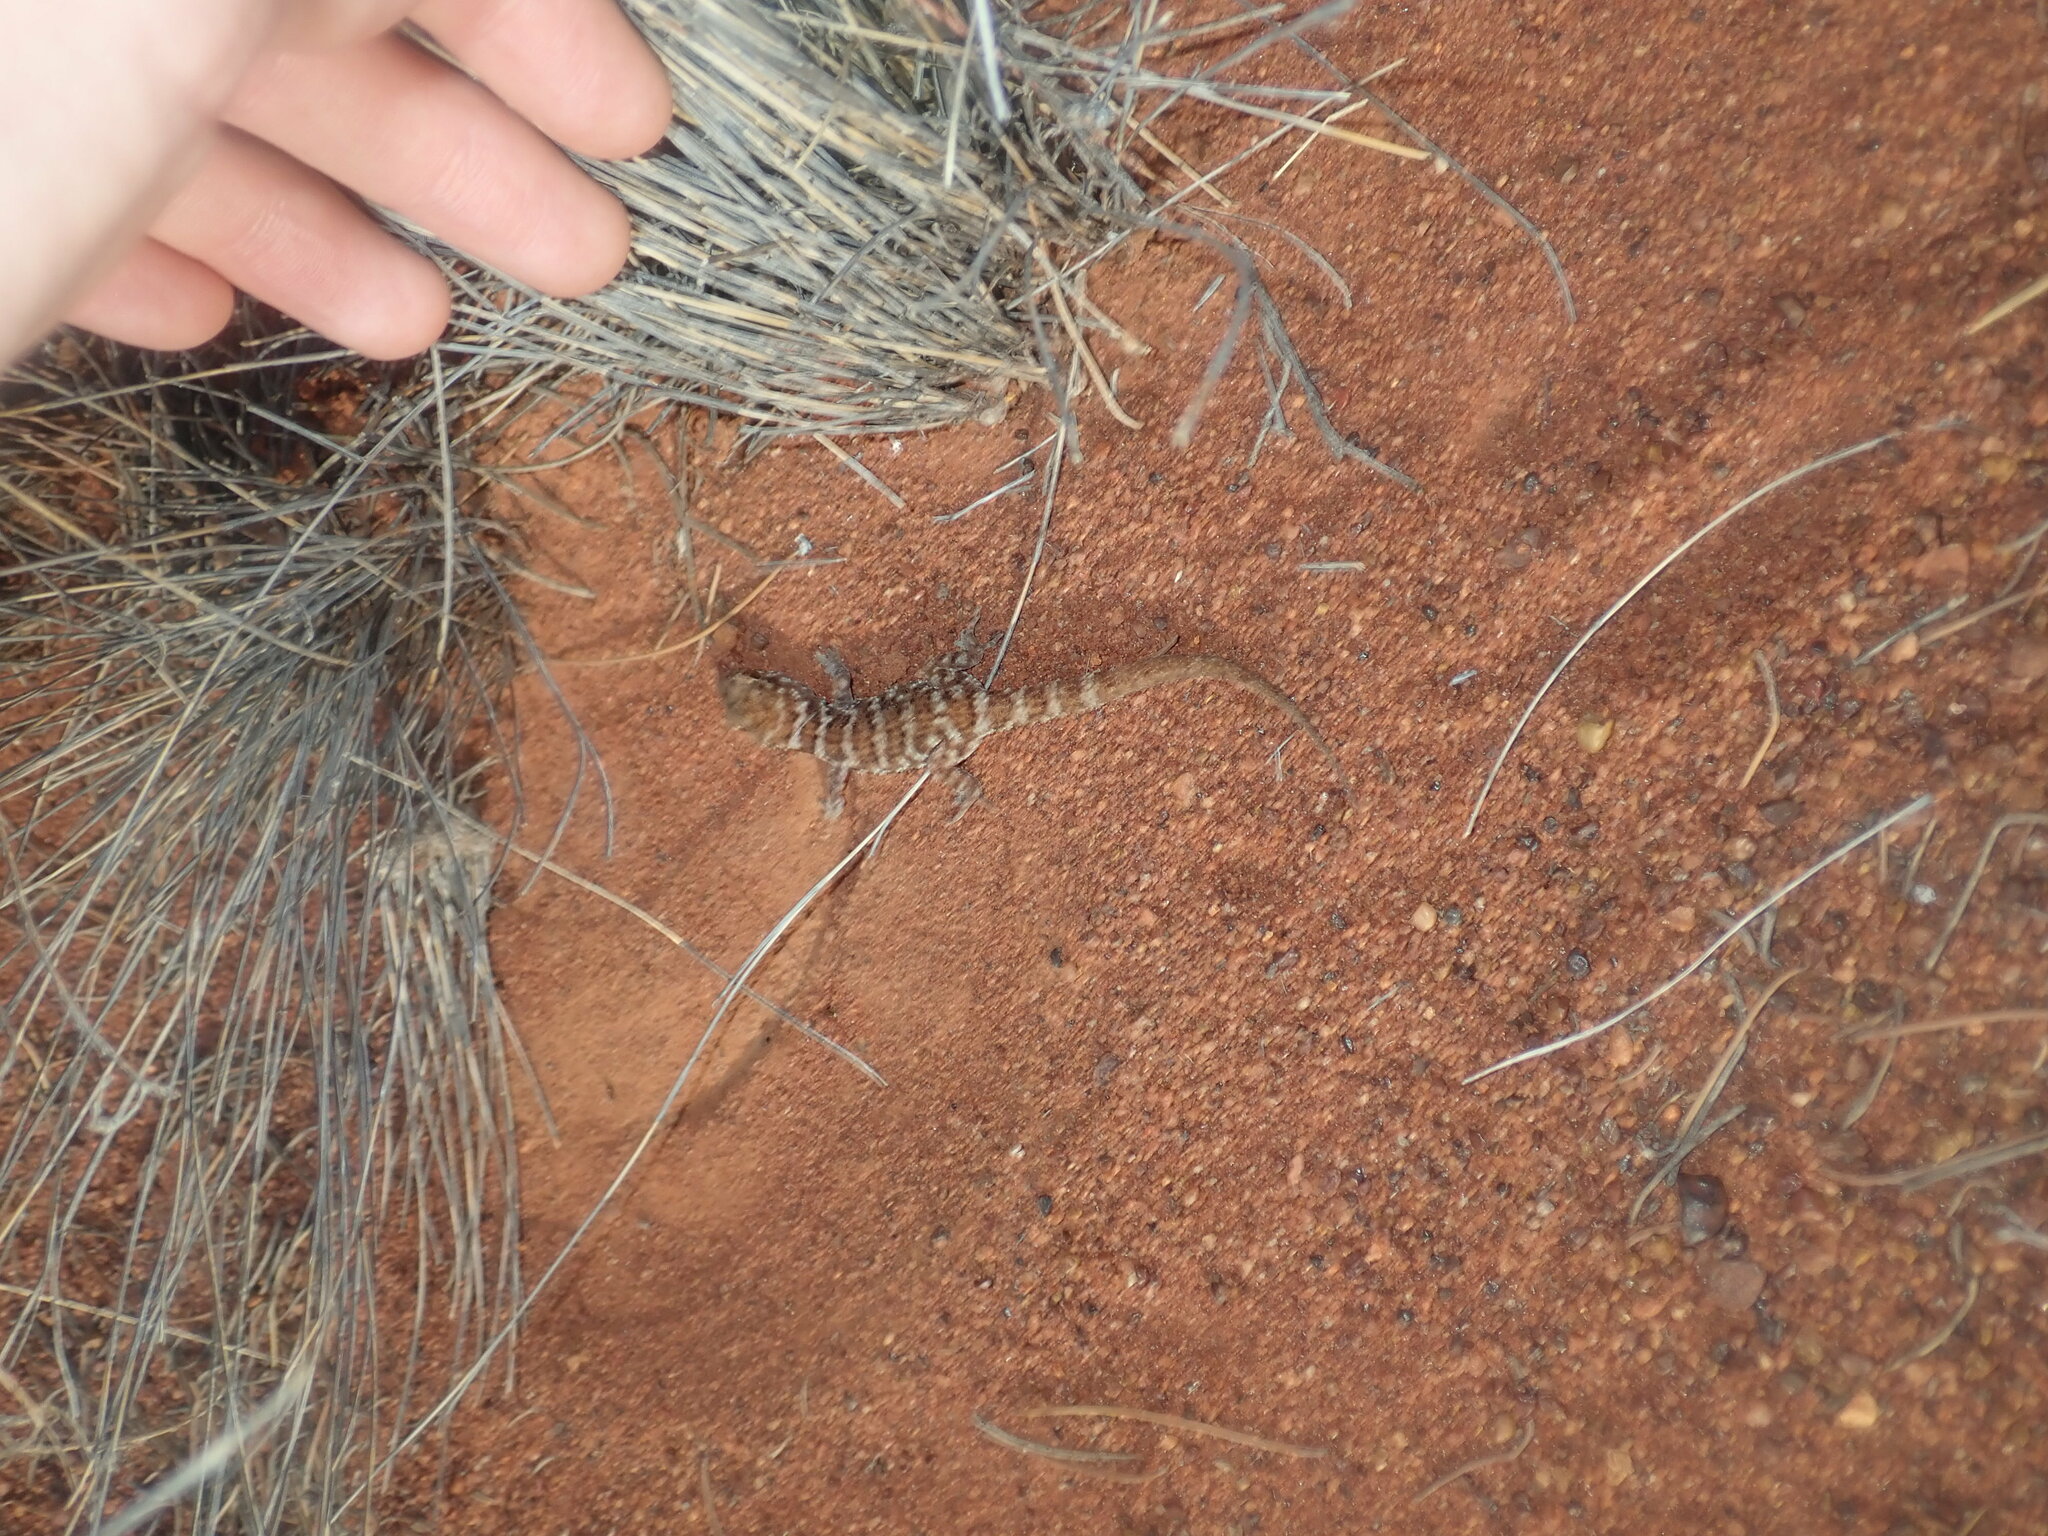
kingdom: Animalia
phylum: Chordata
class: Squamata
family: Gekkonidae
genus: Heteronotia
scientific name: Heteronotia binoei
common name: Bynoe's gecko
